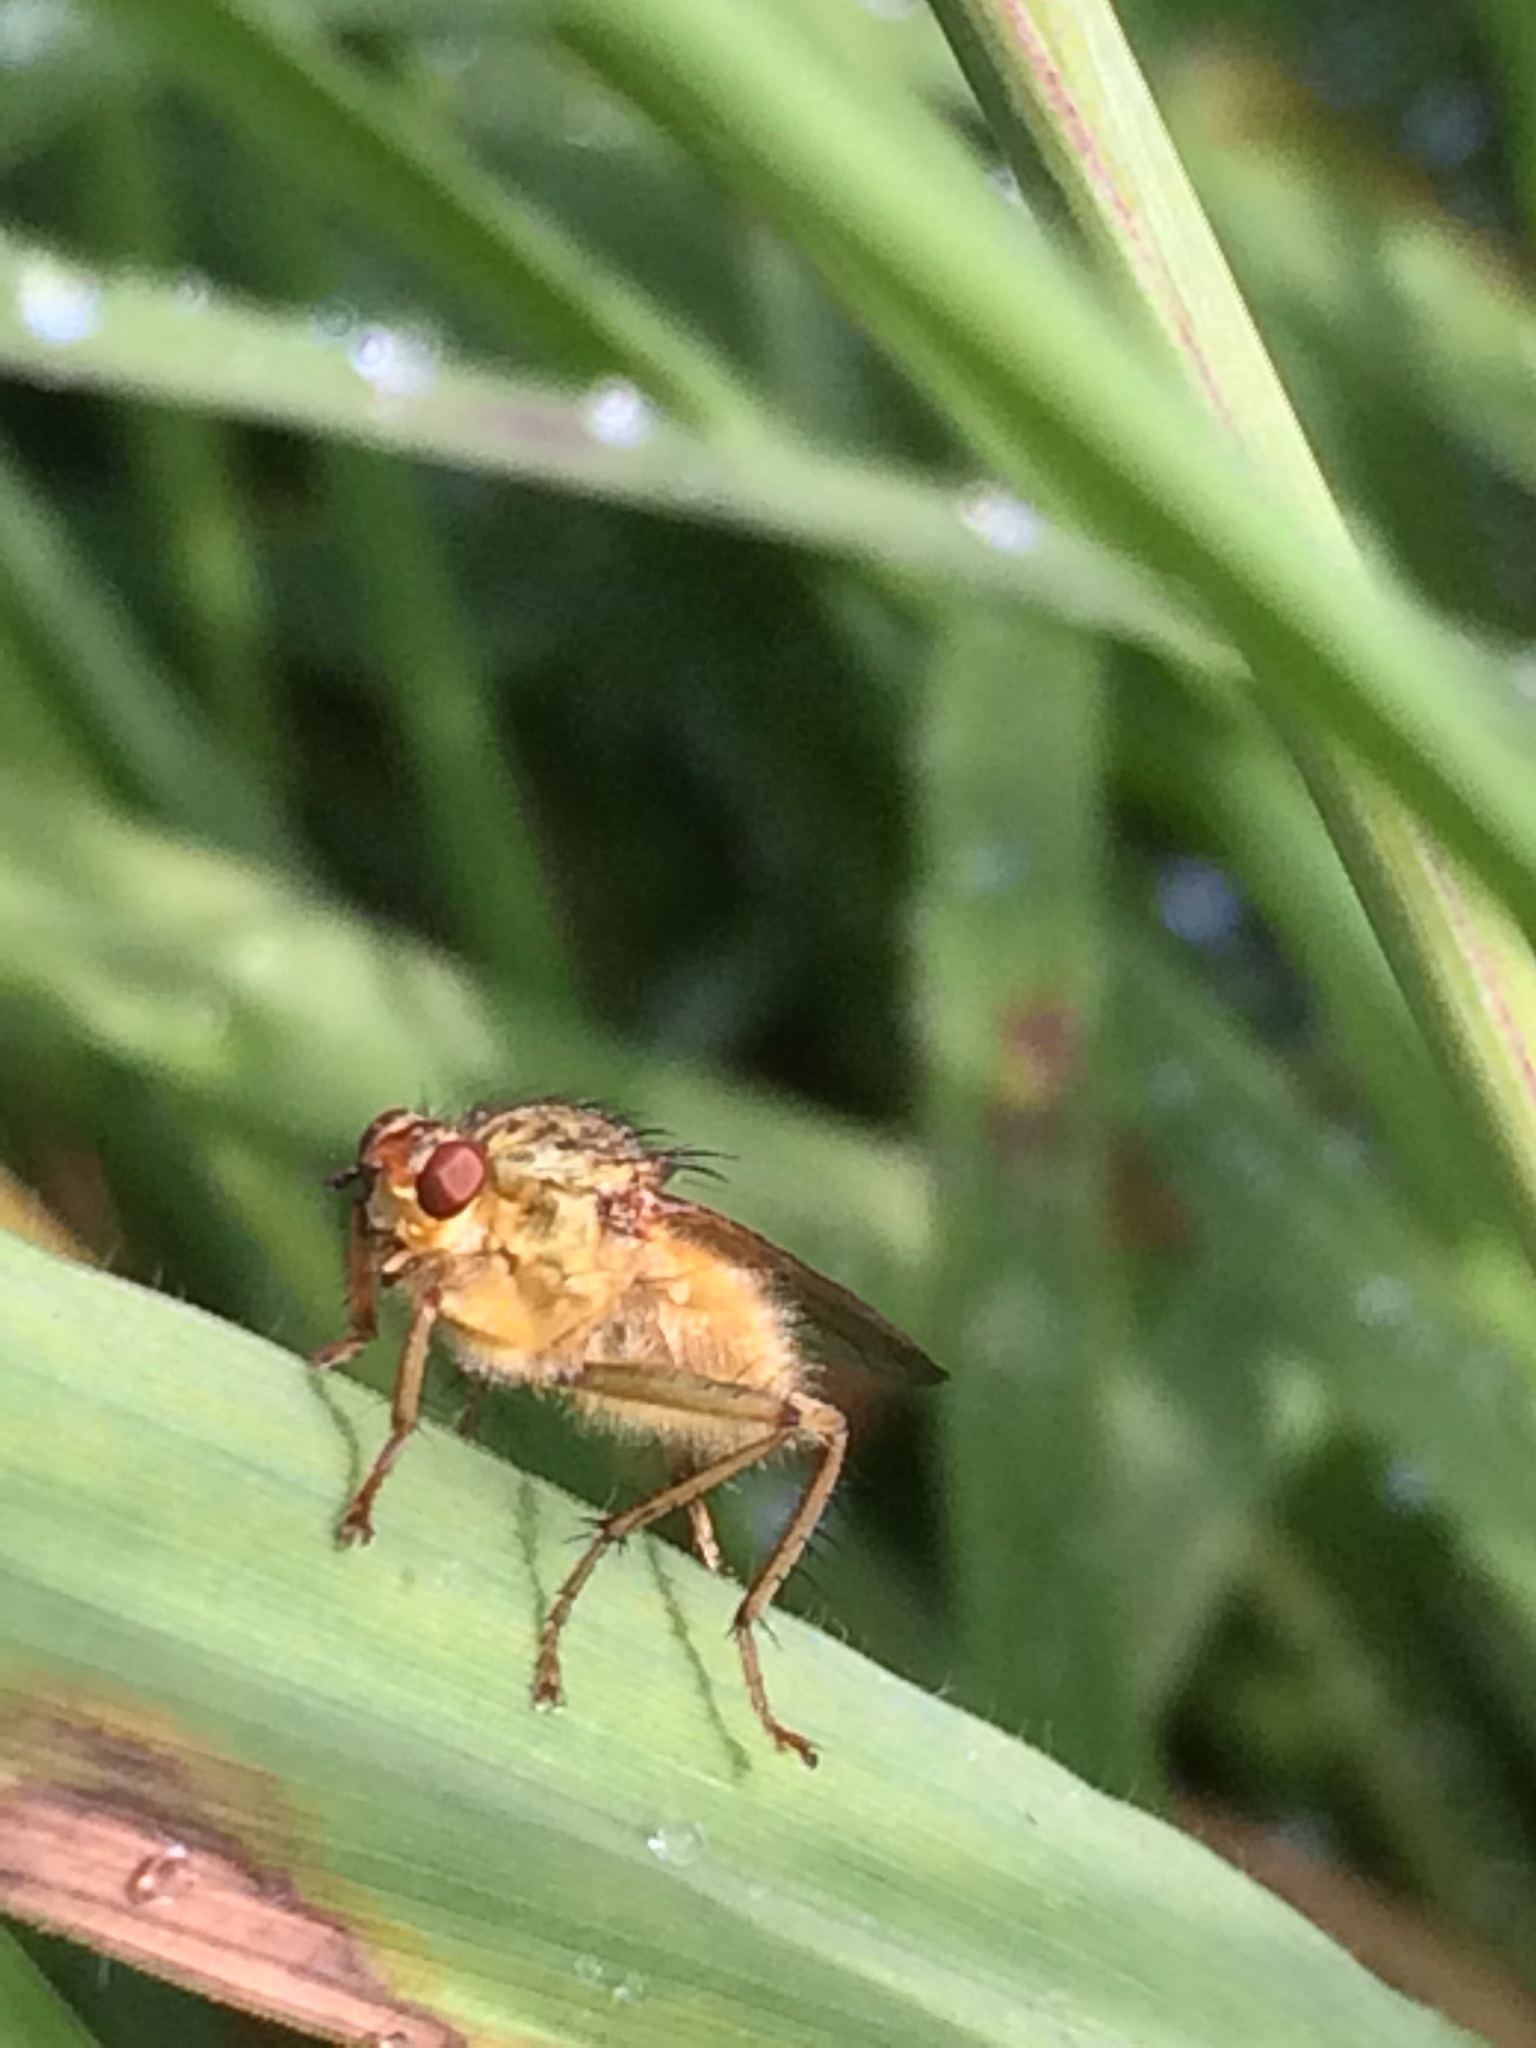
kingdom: Animalia
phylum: Arthropoda
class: Insecta
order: Diptera
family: Scathophagidae
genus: Scathophaga
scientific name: Scathophaga stercoraria
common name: Yellow dung fly
